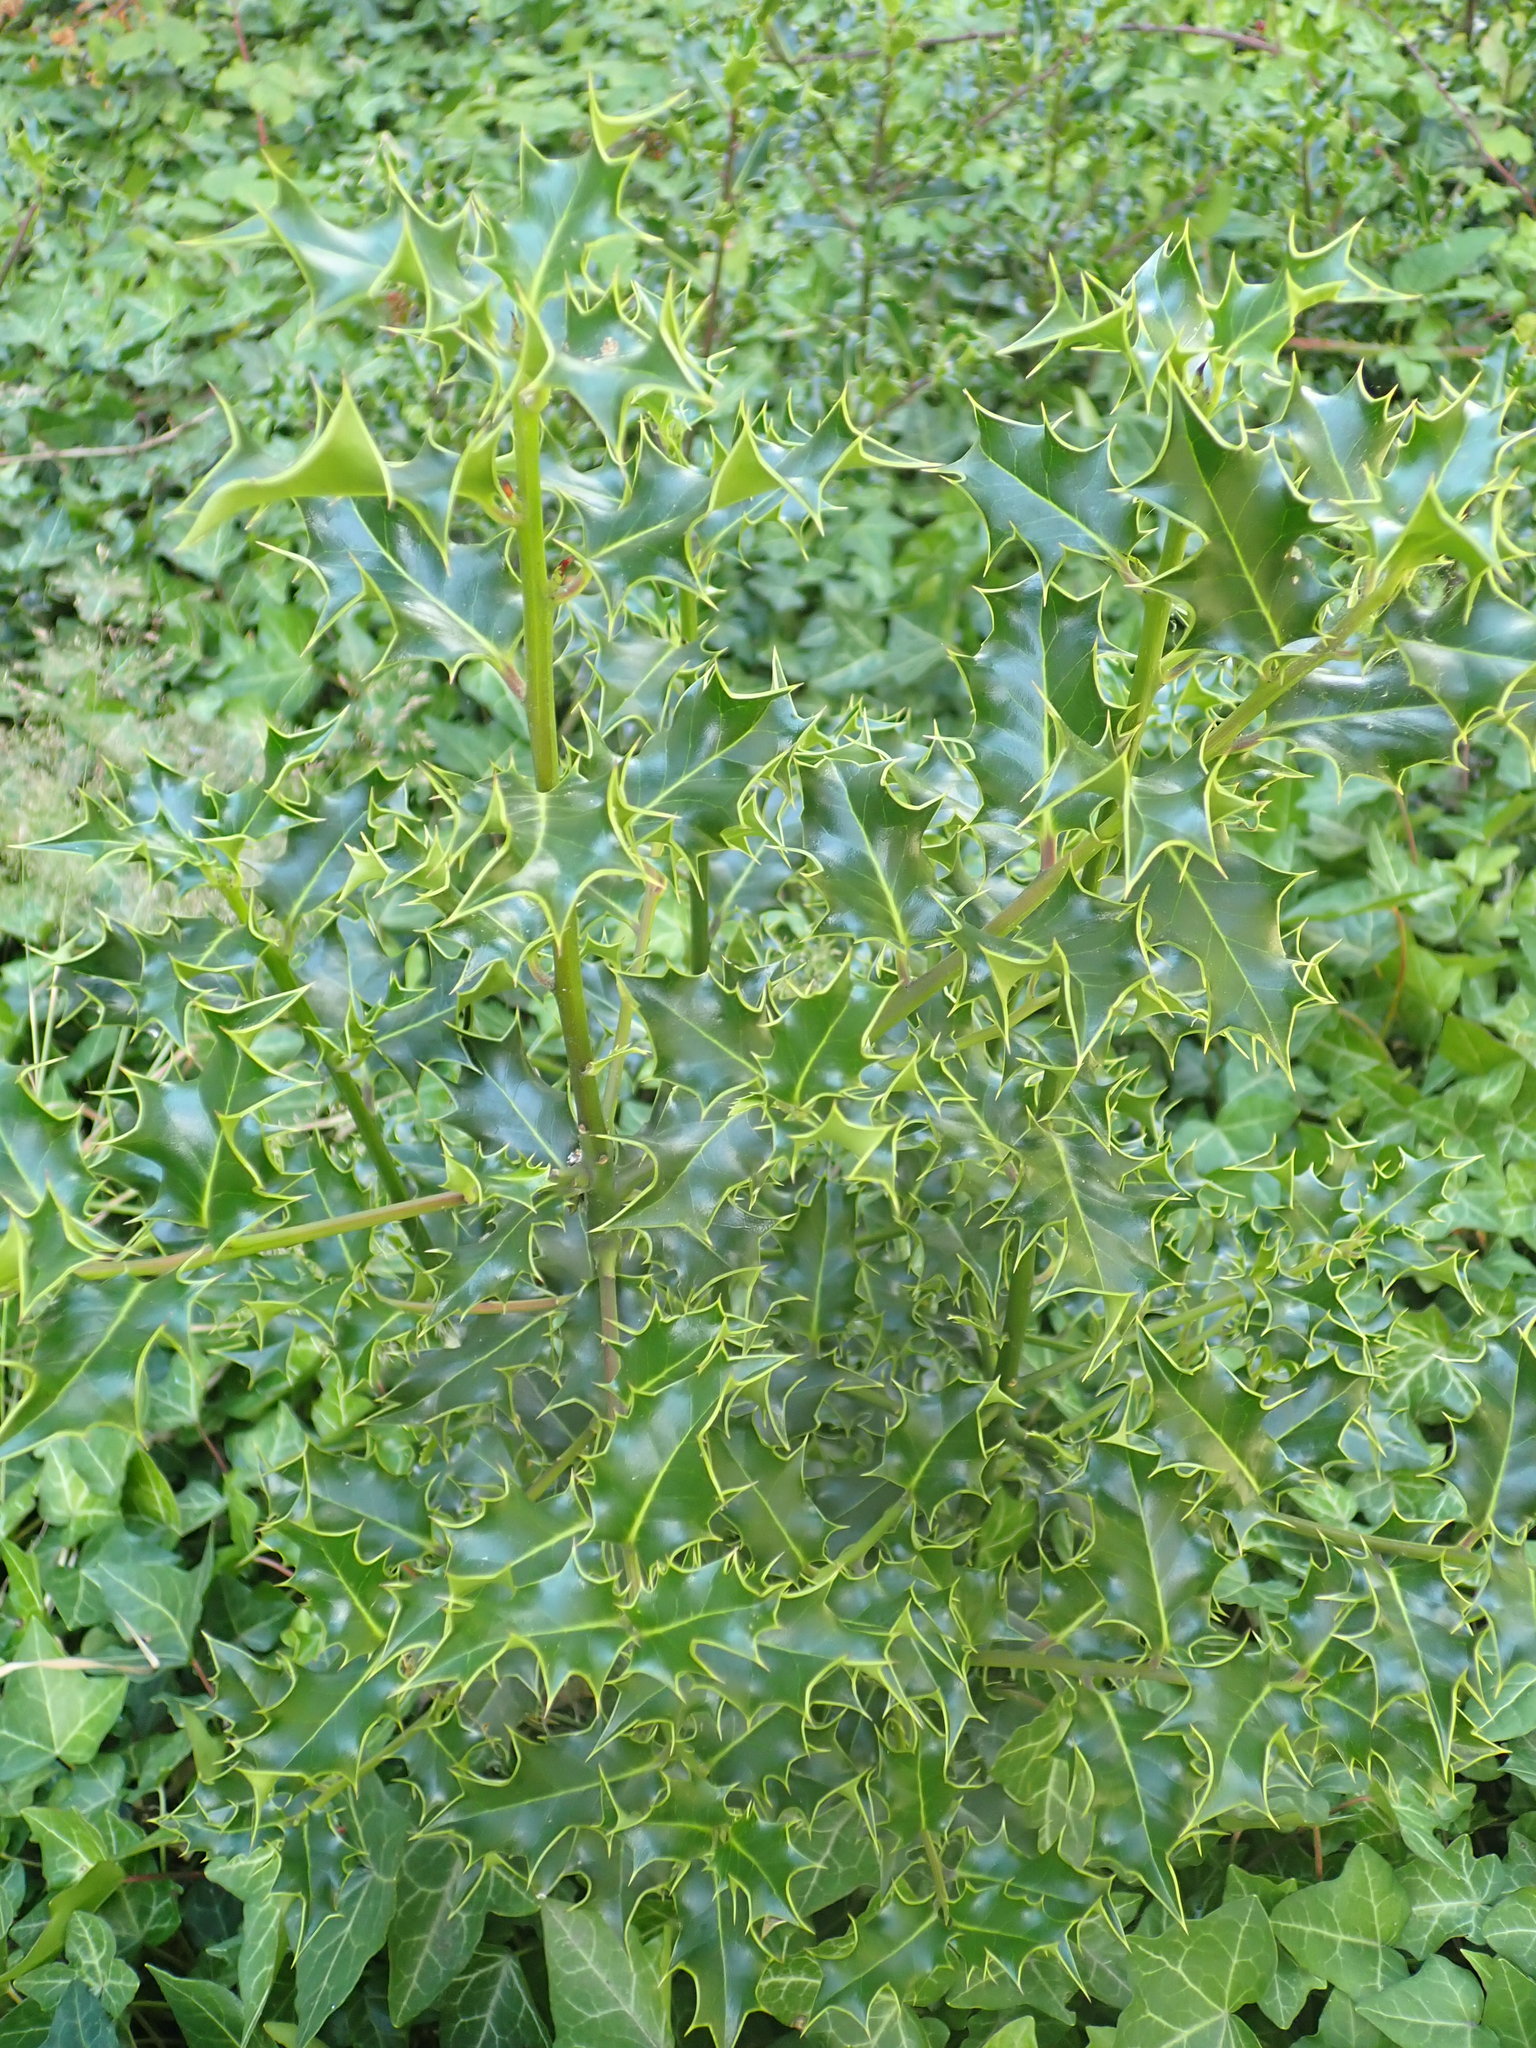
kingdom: Plantae
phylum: Tracheophyta
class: Magnoliopsida
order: Aquifoliales
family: Aquifoliaceae
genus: Ilex
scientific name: Ilex aquifolium
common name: English holly
